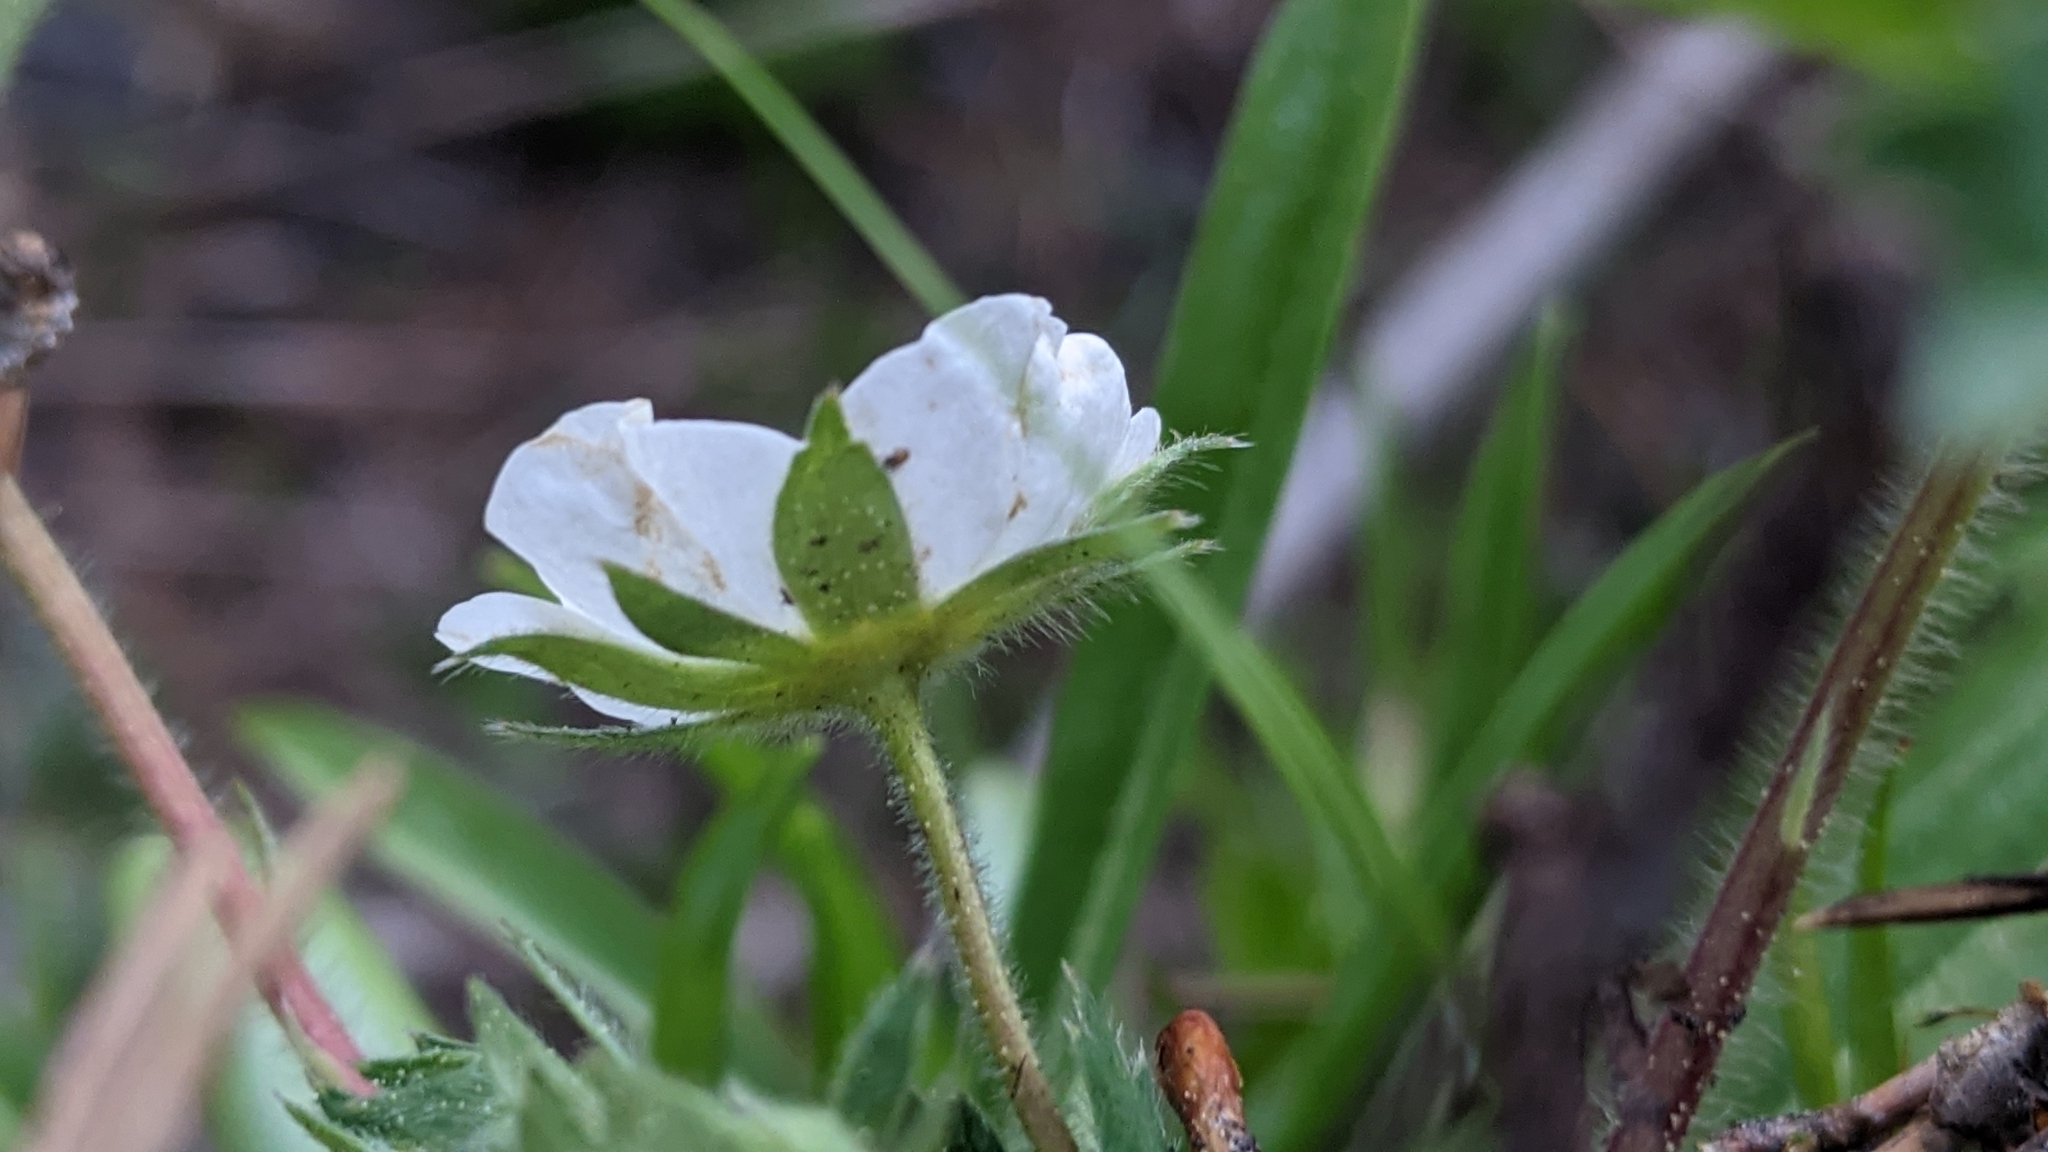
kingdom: Plantae
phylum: Tracheophyta
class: Magnoliopsida
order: Rosales
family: Rosaceae
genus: Fragaria
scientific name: Fragaria virginiana
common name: Thickleaved wild strawberry
